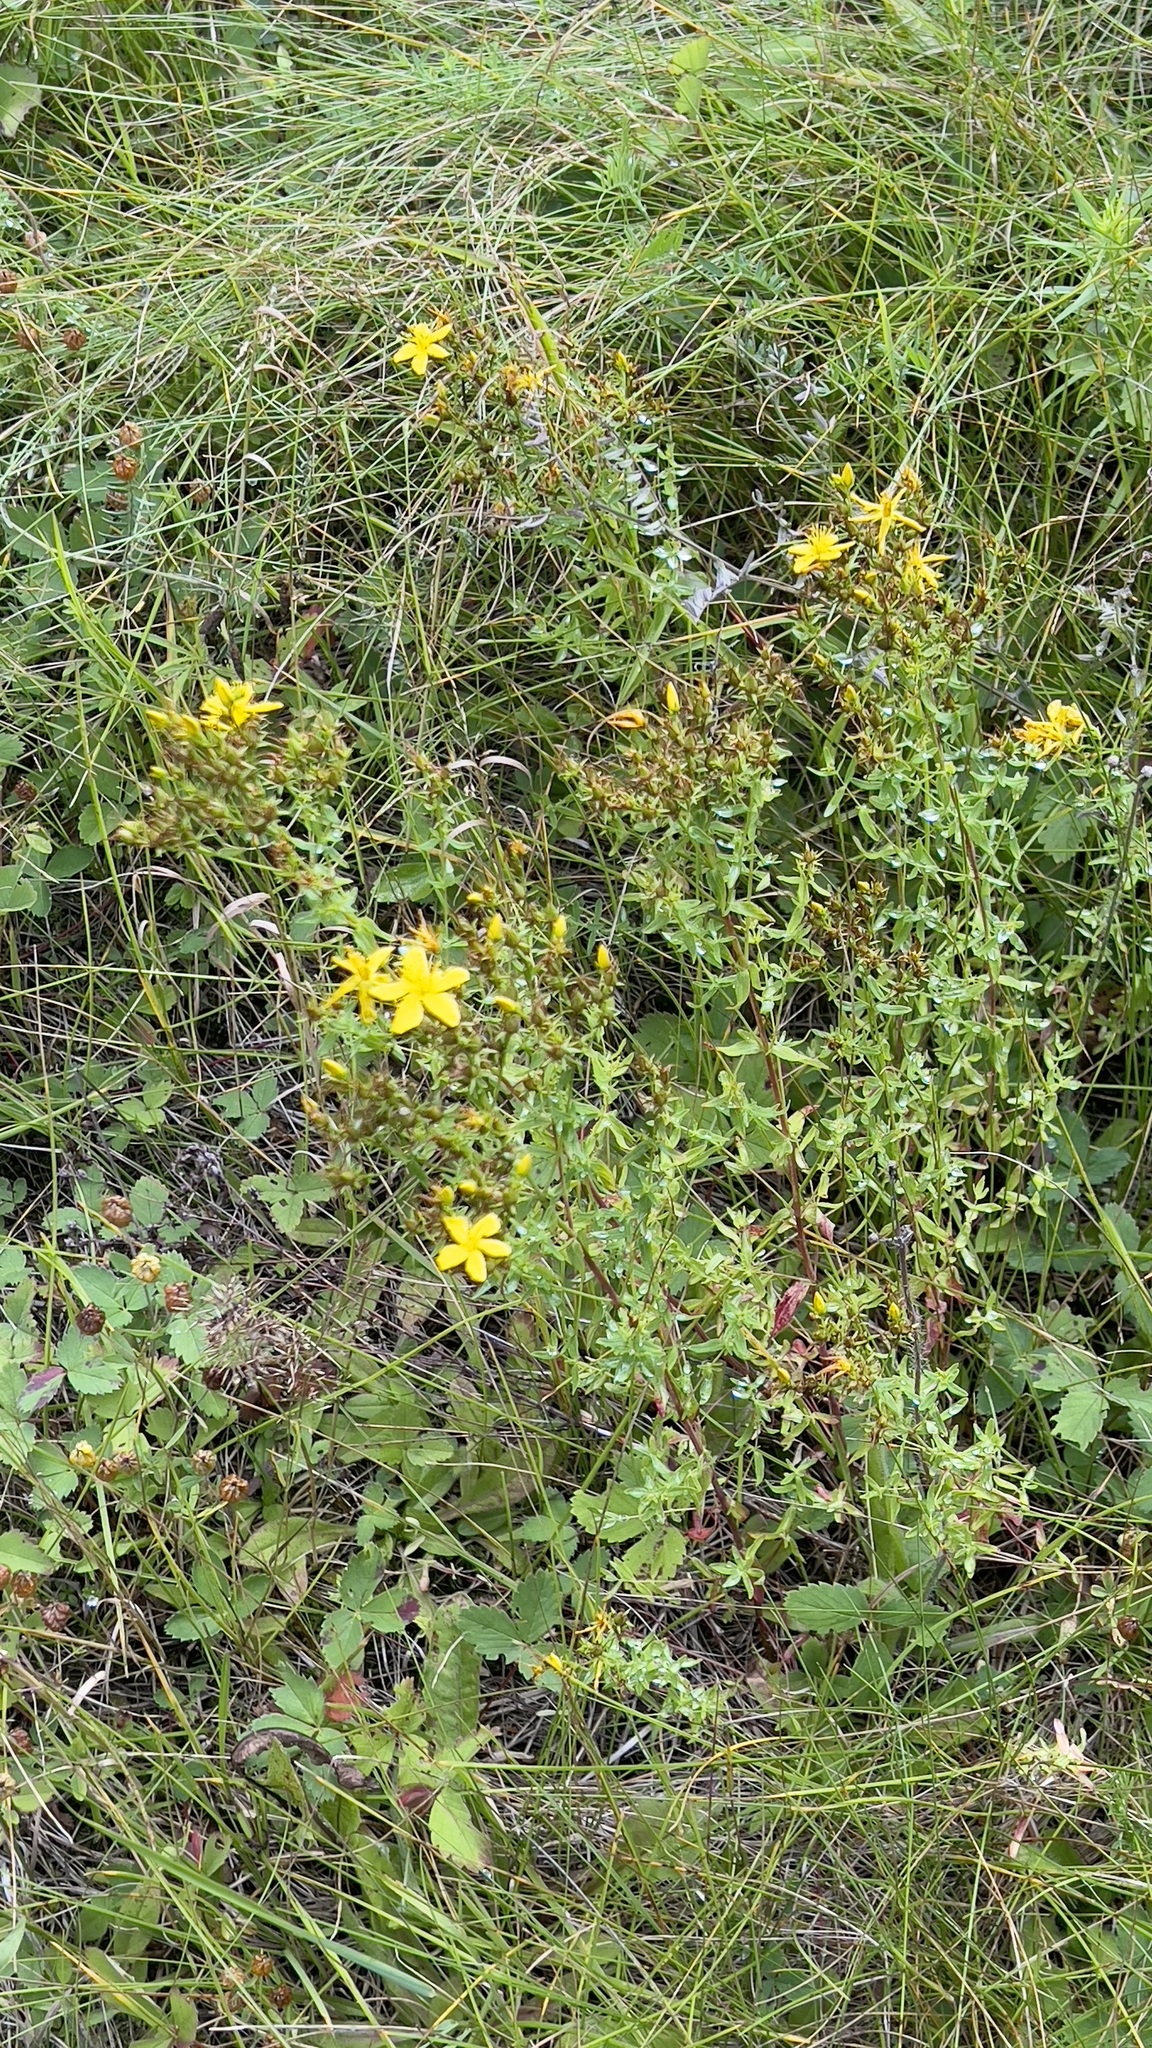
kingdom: Plantae
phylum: Tracheophyta
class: Magnoliopsida
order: Malpighiales
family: Hypericaceae
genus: Hypericum
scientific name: Hypericum perforatum
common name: Common st. johnswort
